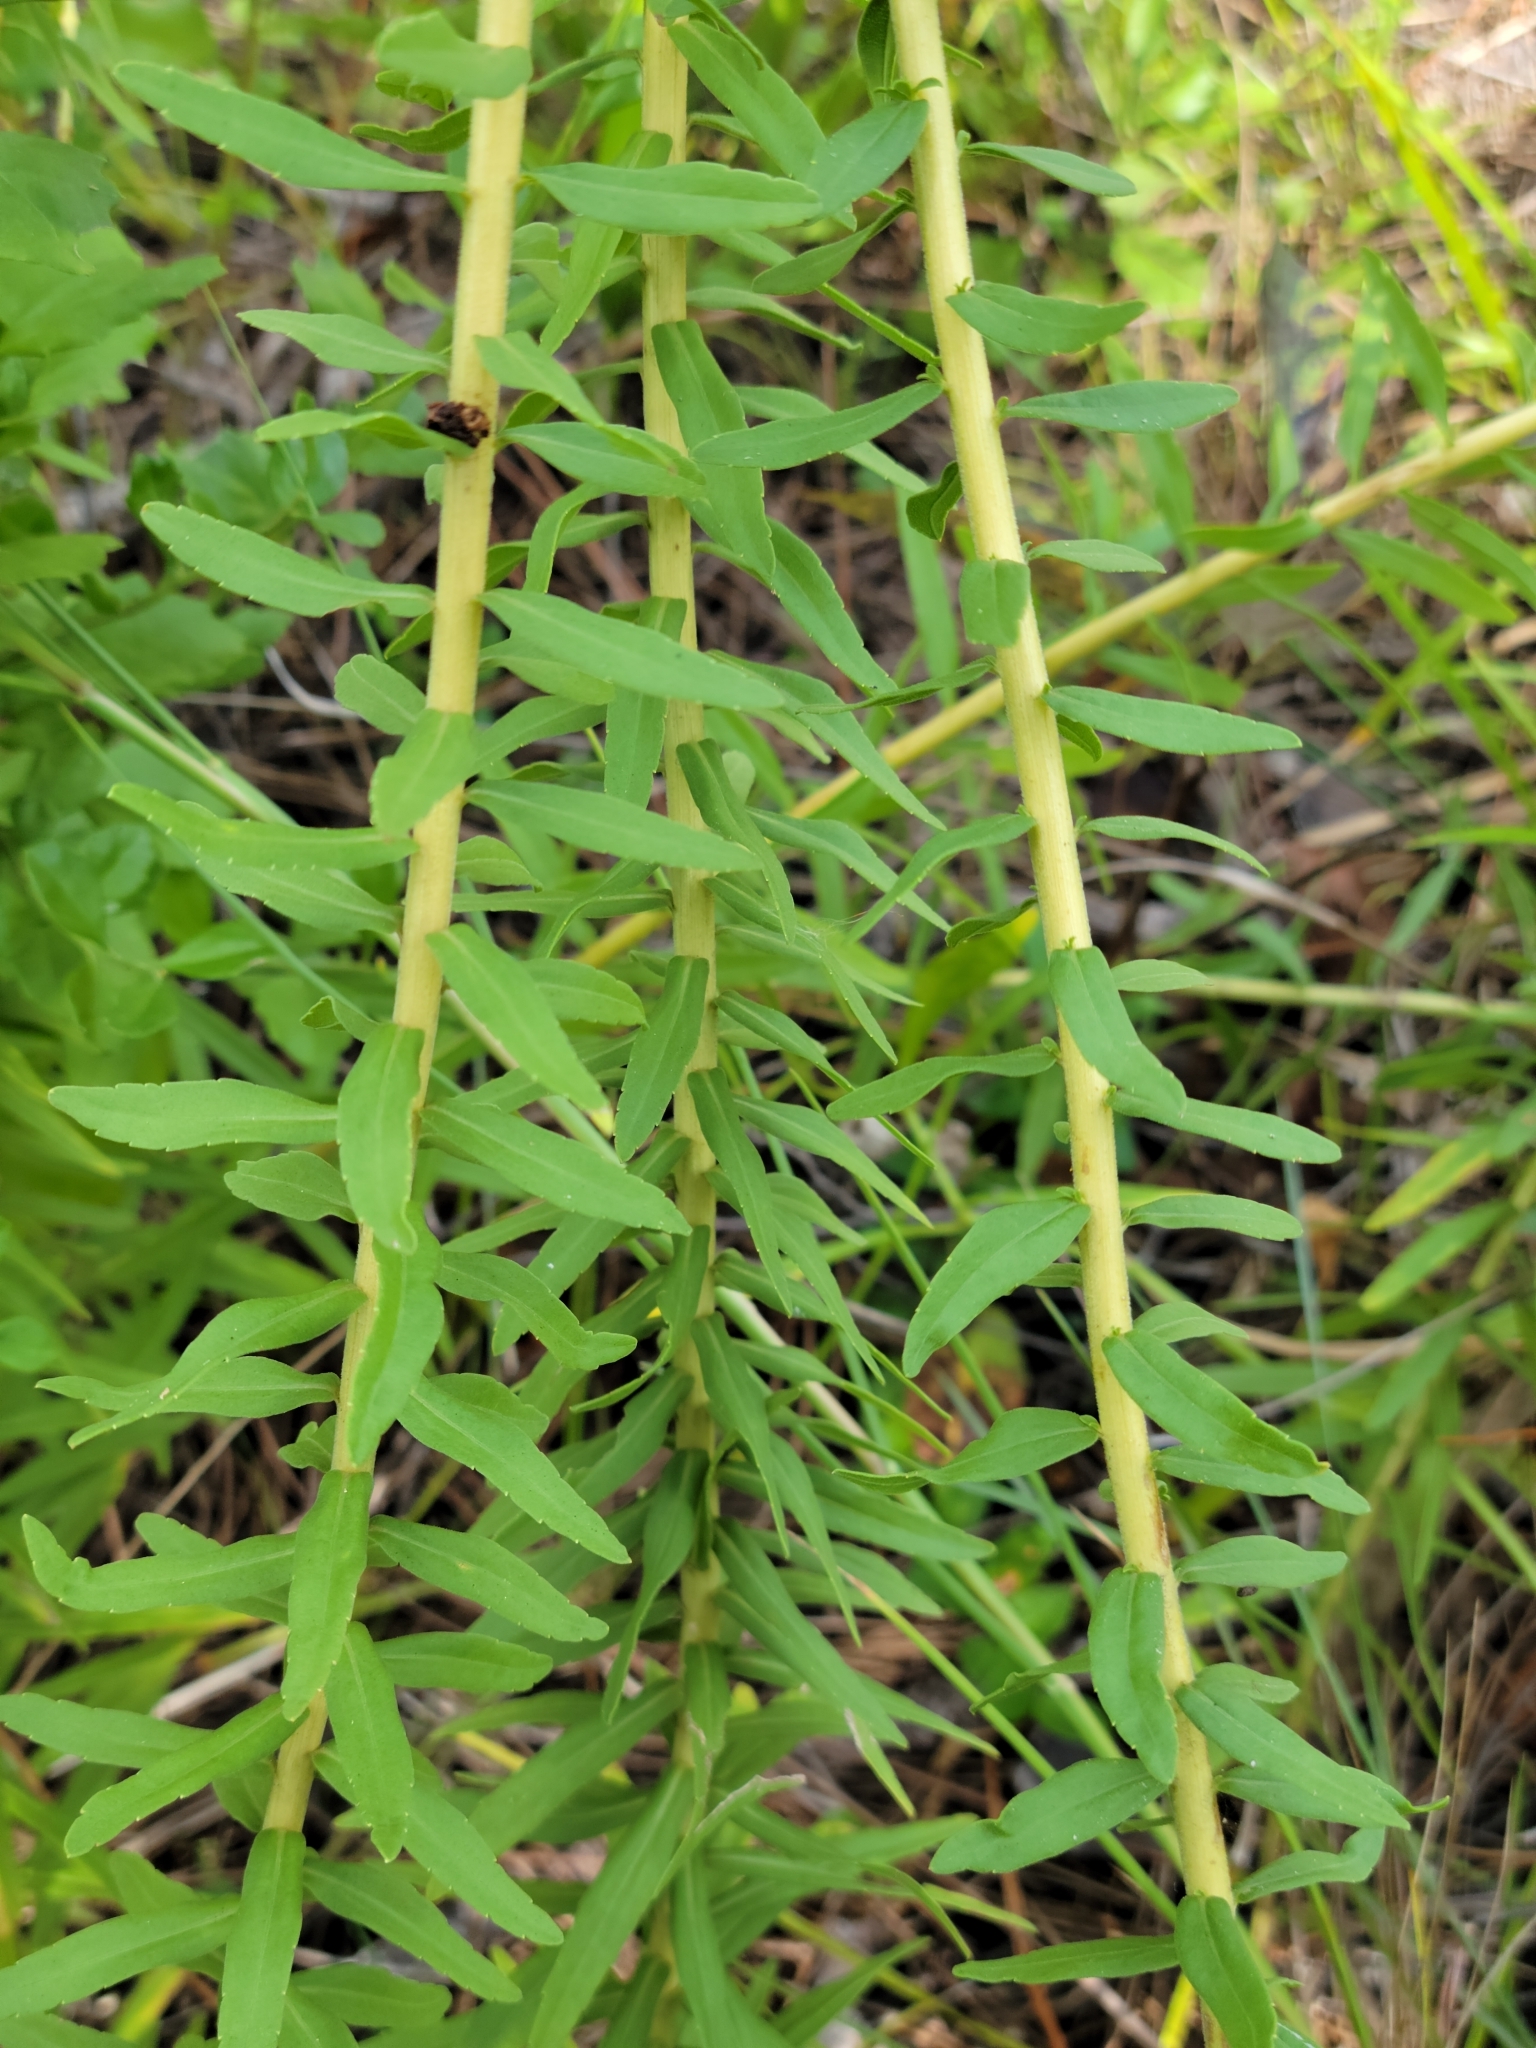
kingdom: Plantae
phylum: Tracheophyta
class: Magnoliopsida
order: Asterales
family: Asteraceae
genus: Solidago
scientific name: Solidago tortifolia
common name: Twisted-leaf goldenrod
